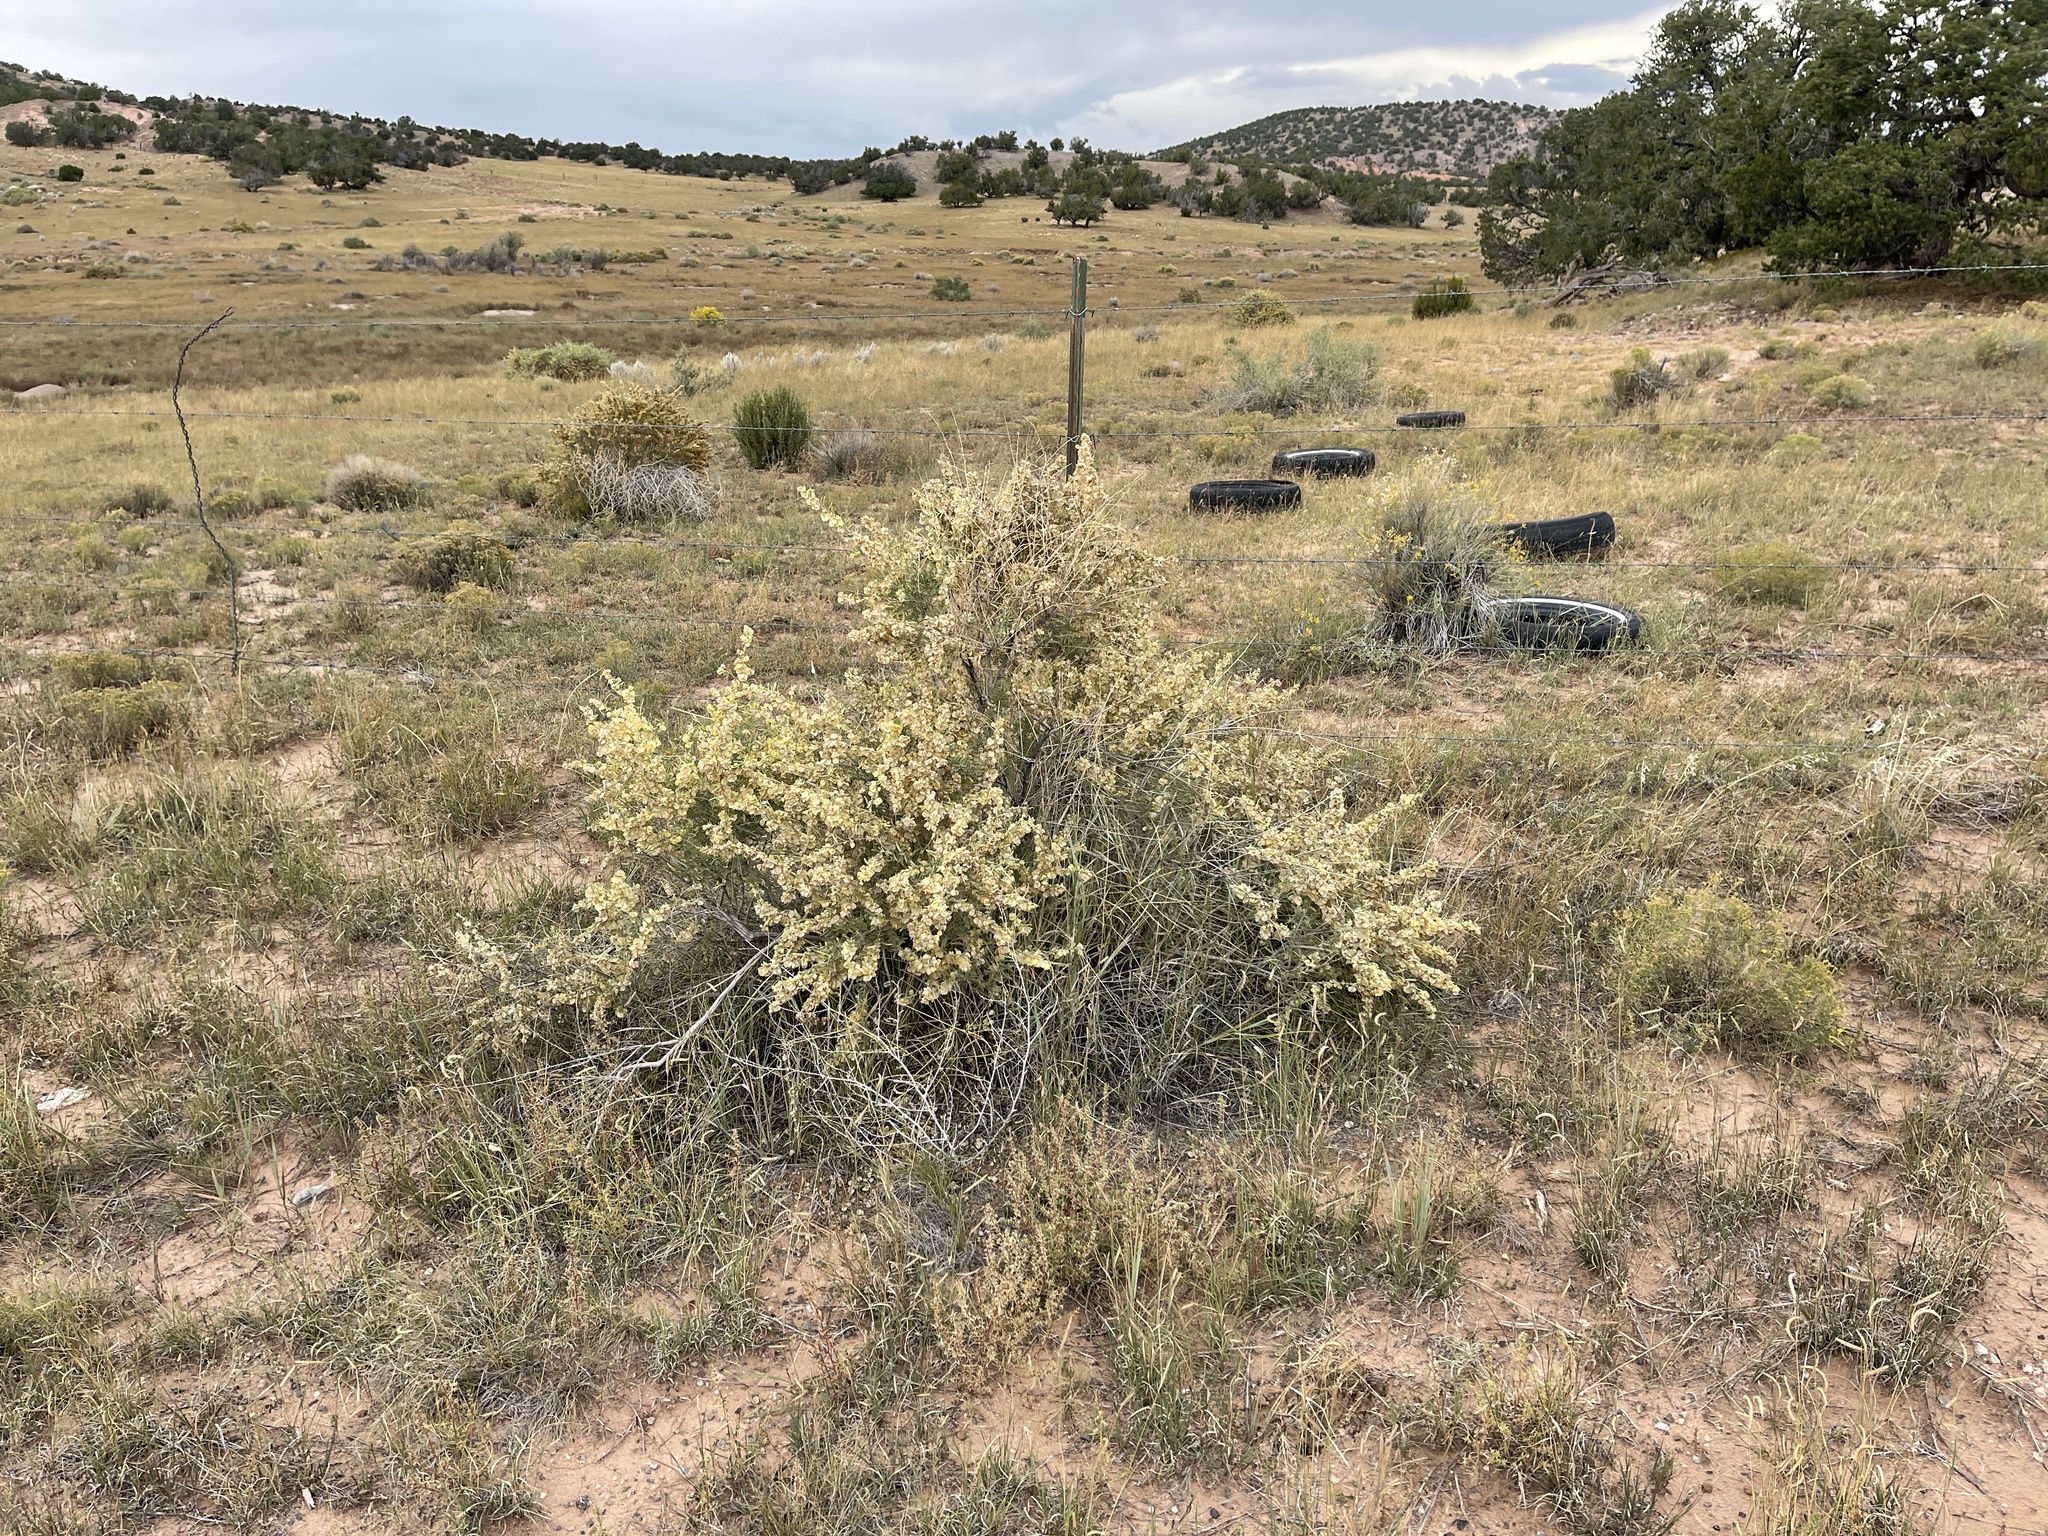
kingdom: Plantae
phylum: Tracheophyta
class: Magnoliopsida
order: Caryophyllales
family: Amaranthaceae
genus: Atriplex
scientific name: Atriplex canescens
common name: Four-wing saltbush
